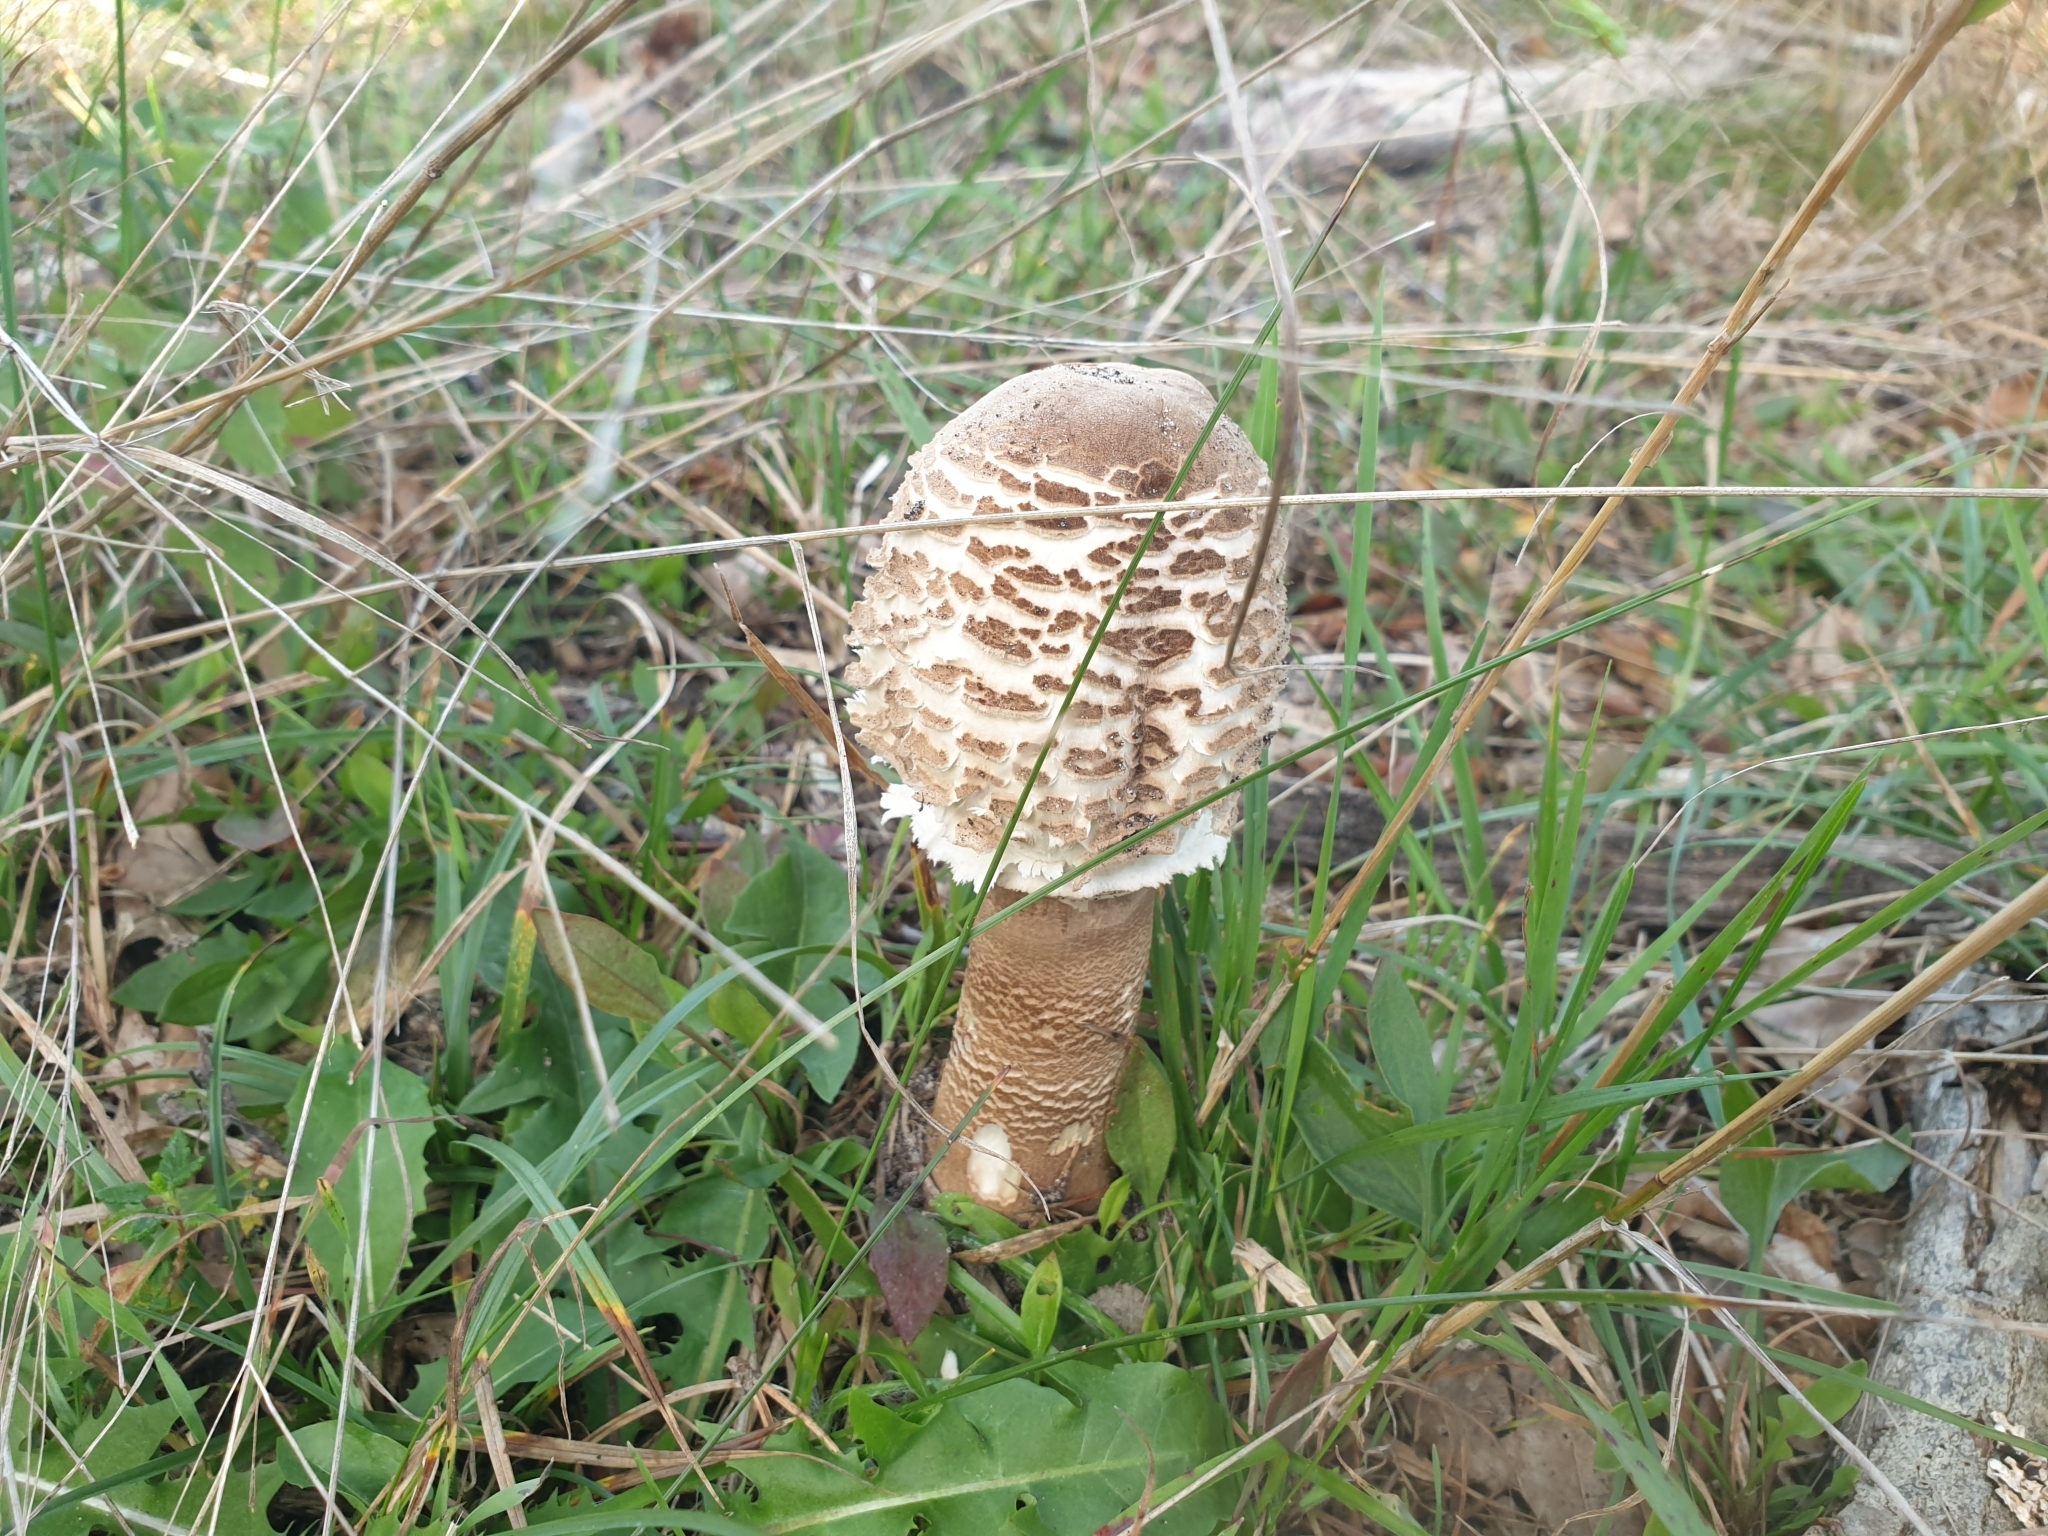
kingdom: Fungi
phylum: Basidiomycota
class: Agaricomycetes
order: Agaricales
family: Agaricaceae
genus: Macrolepiota
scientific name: Macrolepiota procera
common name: Parasol
